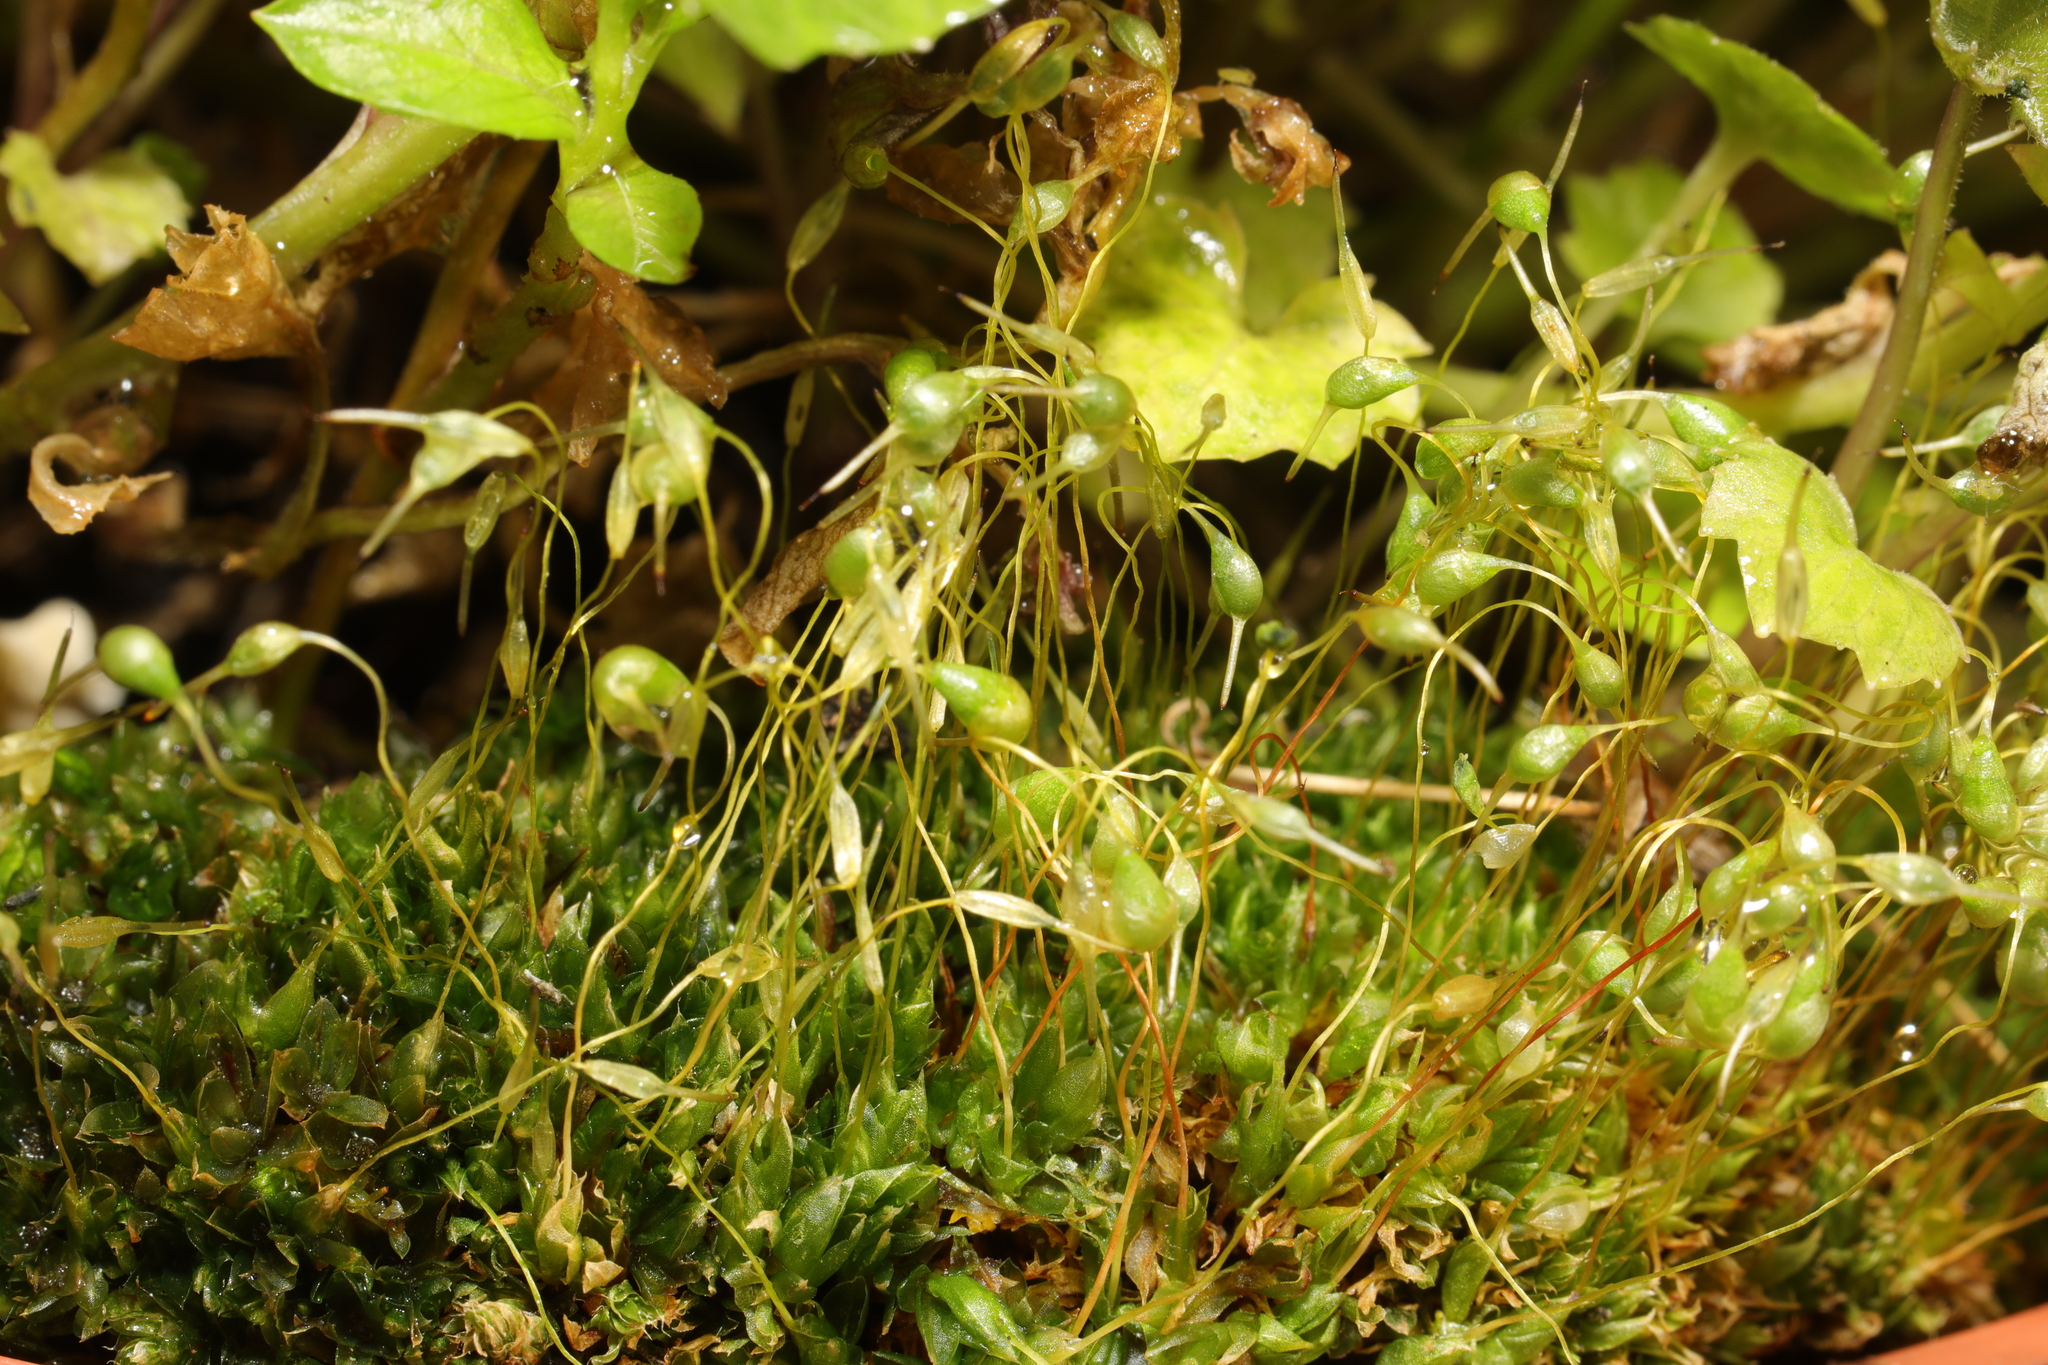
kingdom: Plantae
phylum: Bryophyta
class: Bryopsida
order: Bryales
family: Bryaceae
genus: Rosulabryum
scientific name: Rosulabryum capillare
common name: Capillary thread-moss
